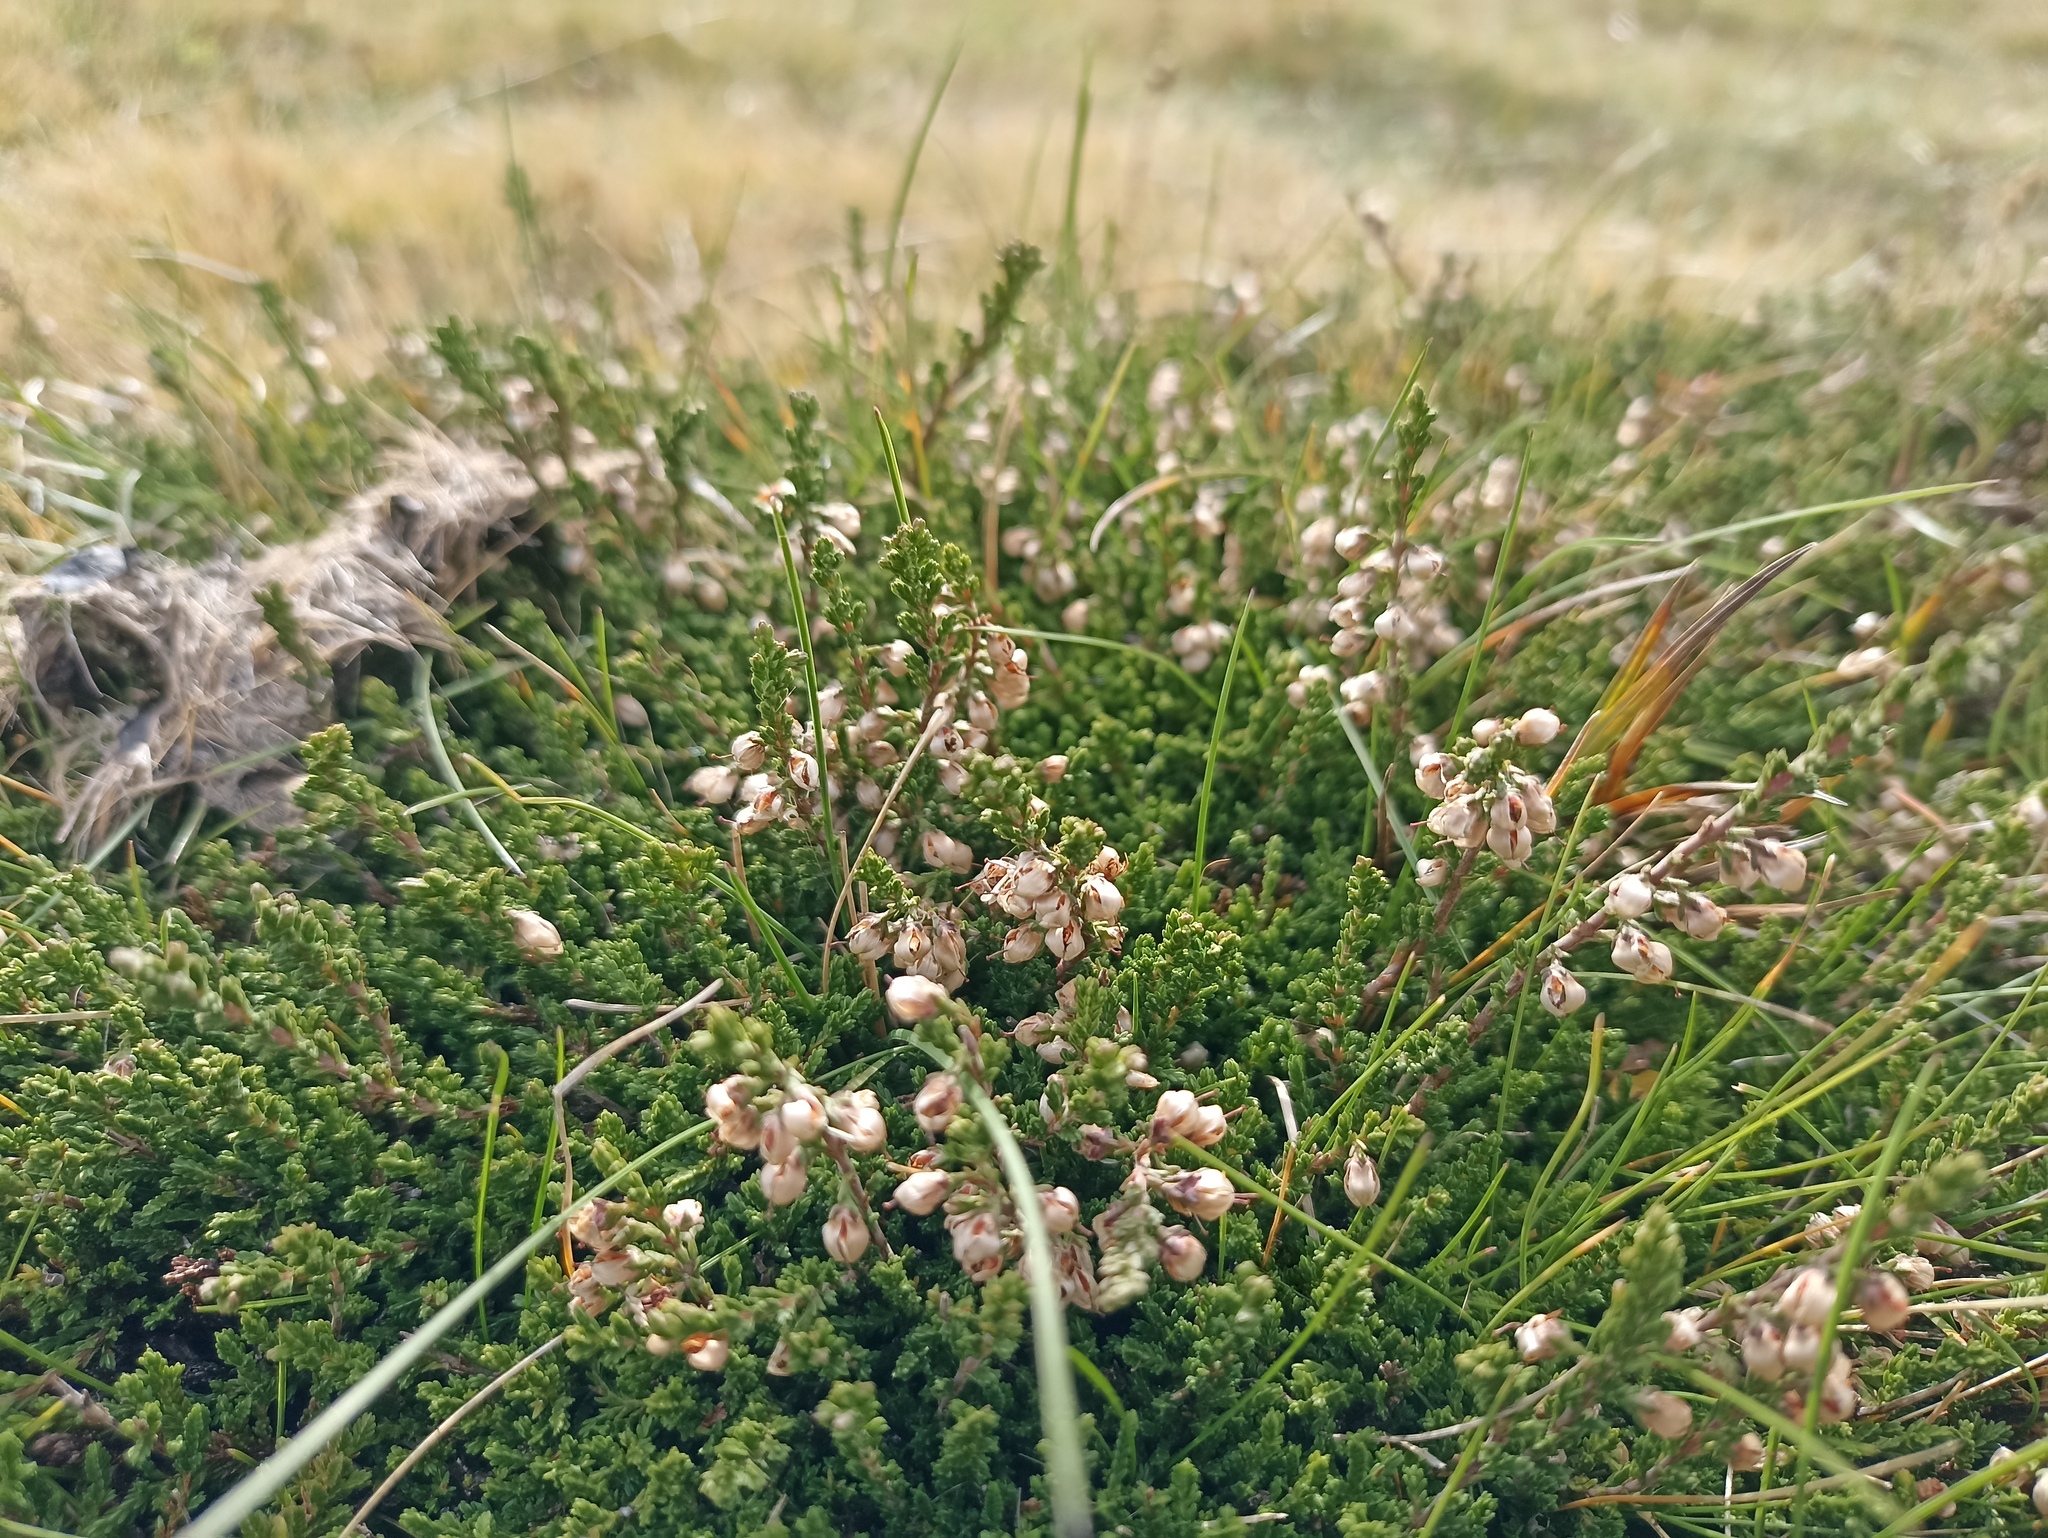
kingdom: Plantae
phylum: Tracheophyta
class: Magnoliopsida
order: Ericales
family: Ericaceae
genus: Calluna
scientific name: Calluna vulgaris
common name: Heather
